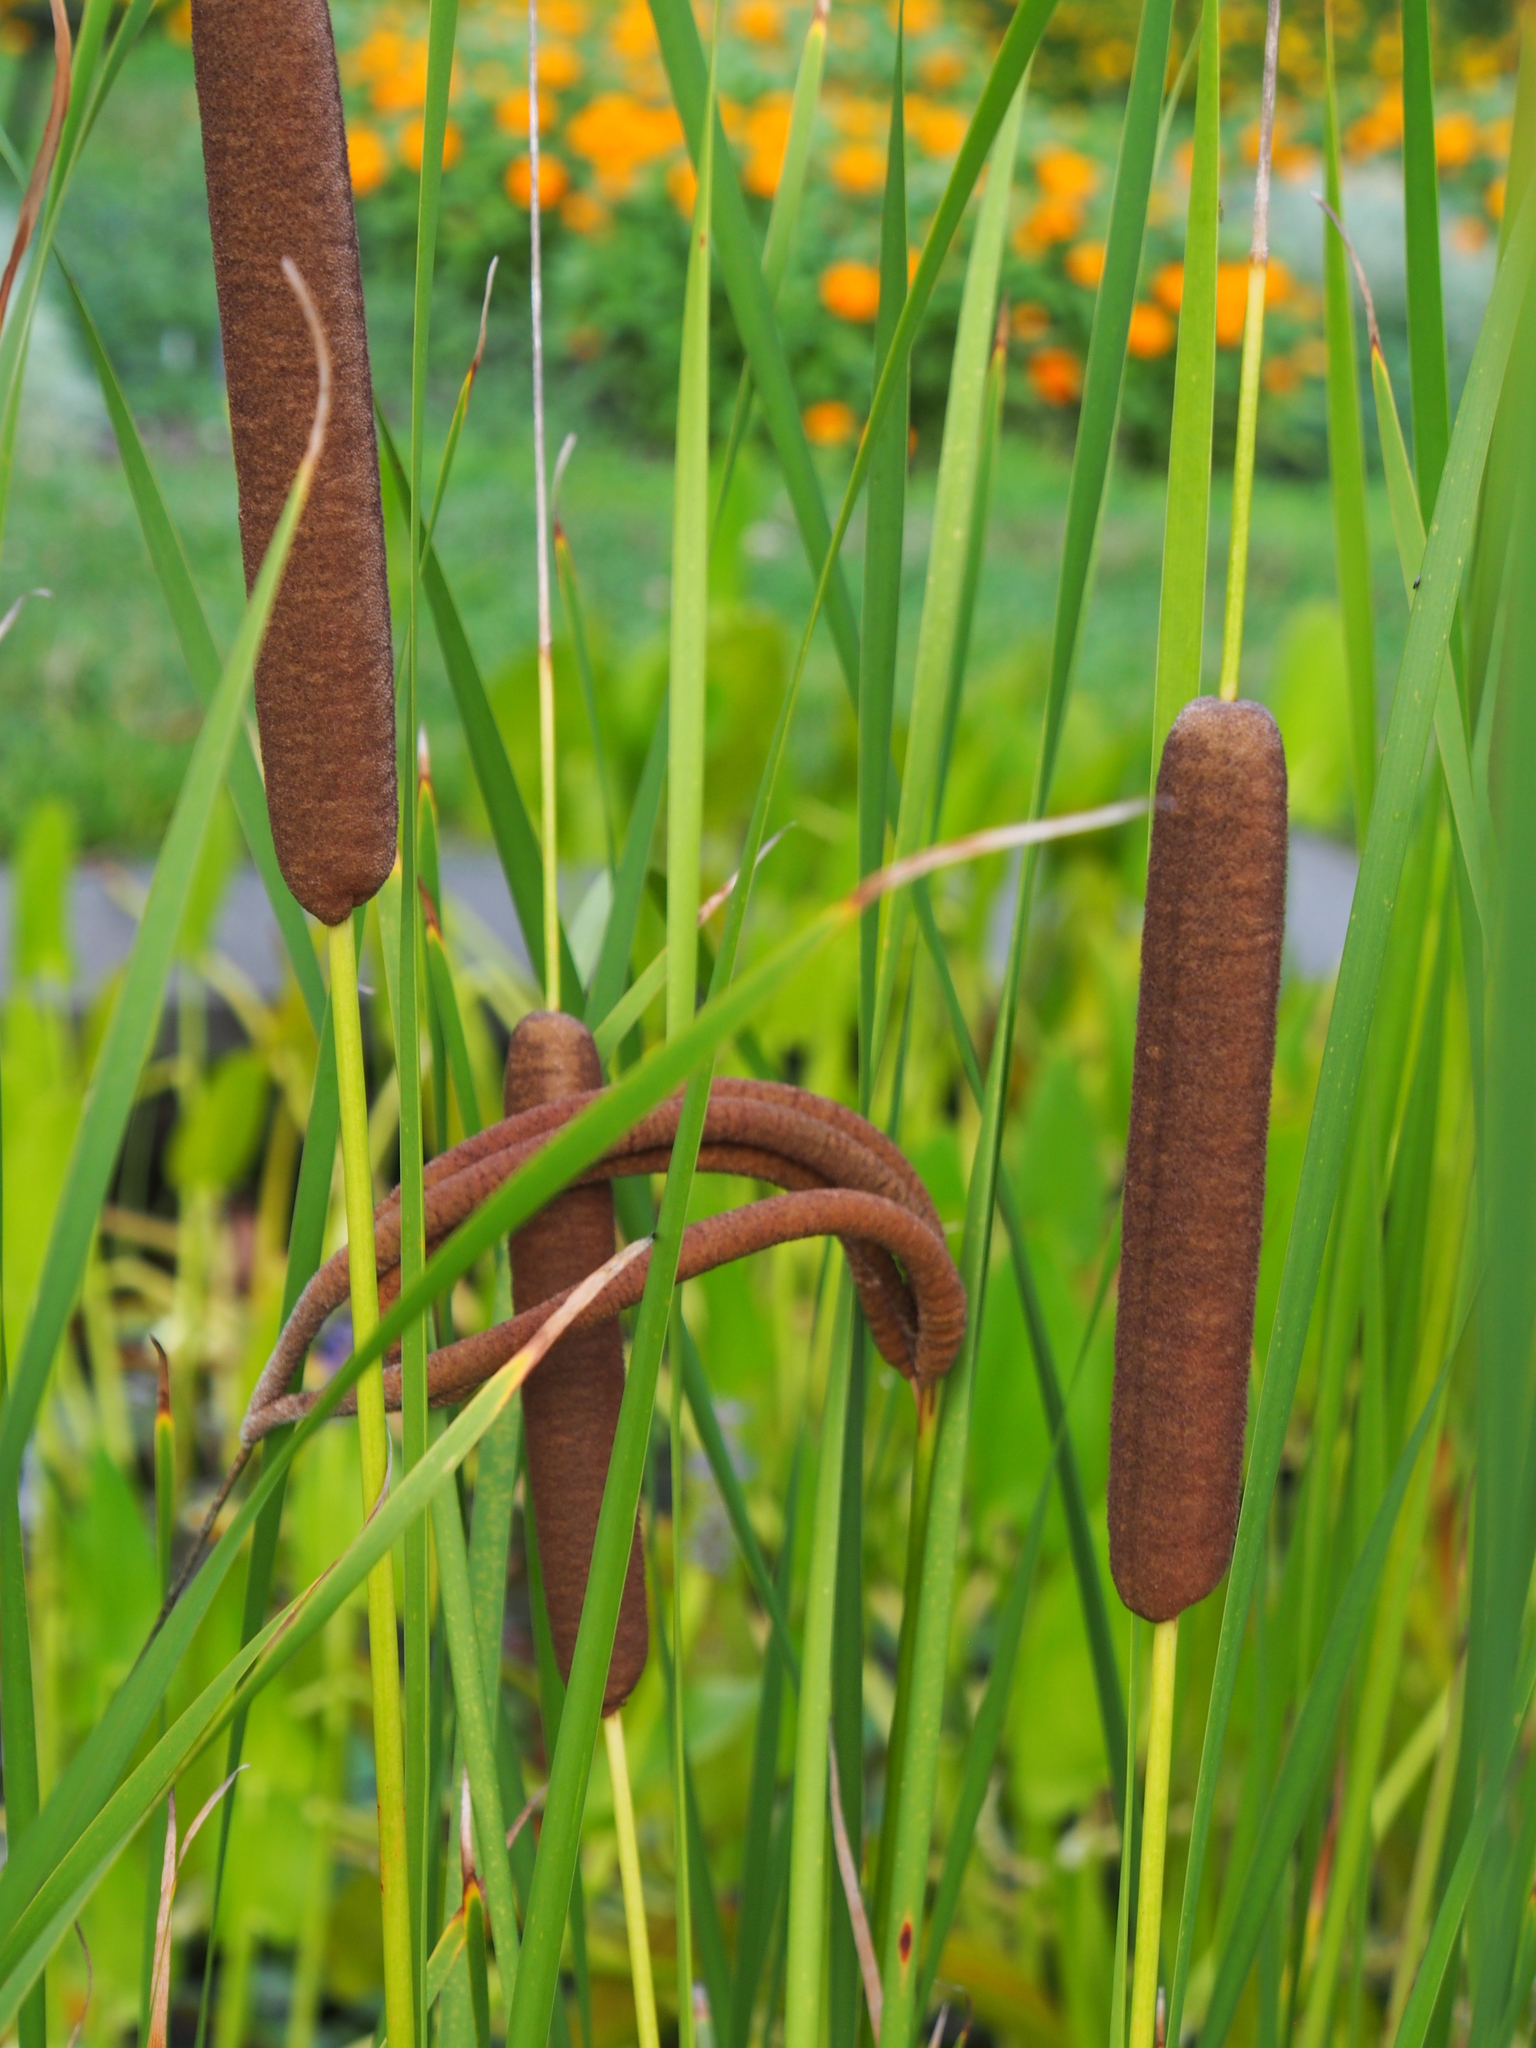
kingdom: Plantae
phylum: Tracheophyta
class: Liliopsida
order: Poales
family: Typhaceae
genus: Typha
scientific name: Typha laxmannii
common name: Laxman’s bulrush
